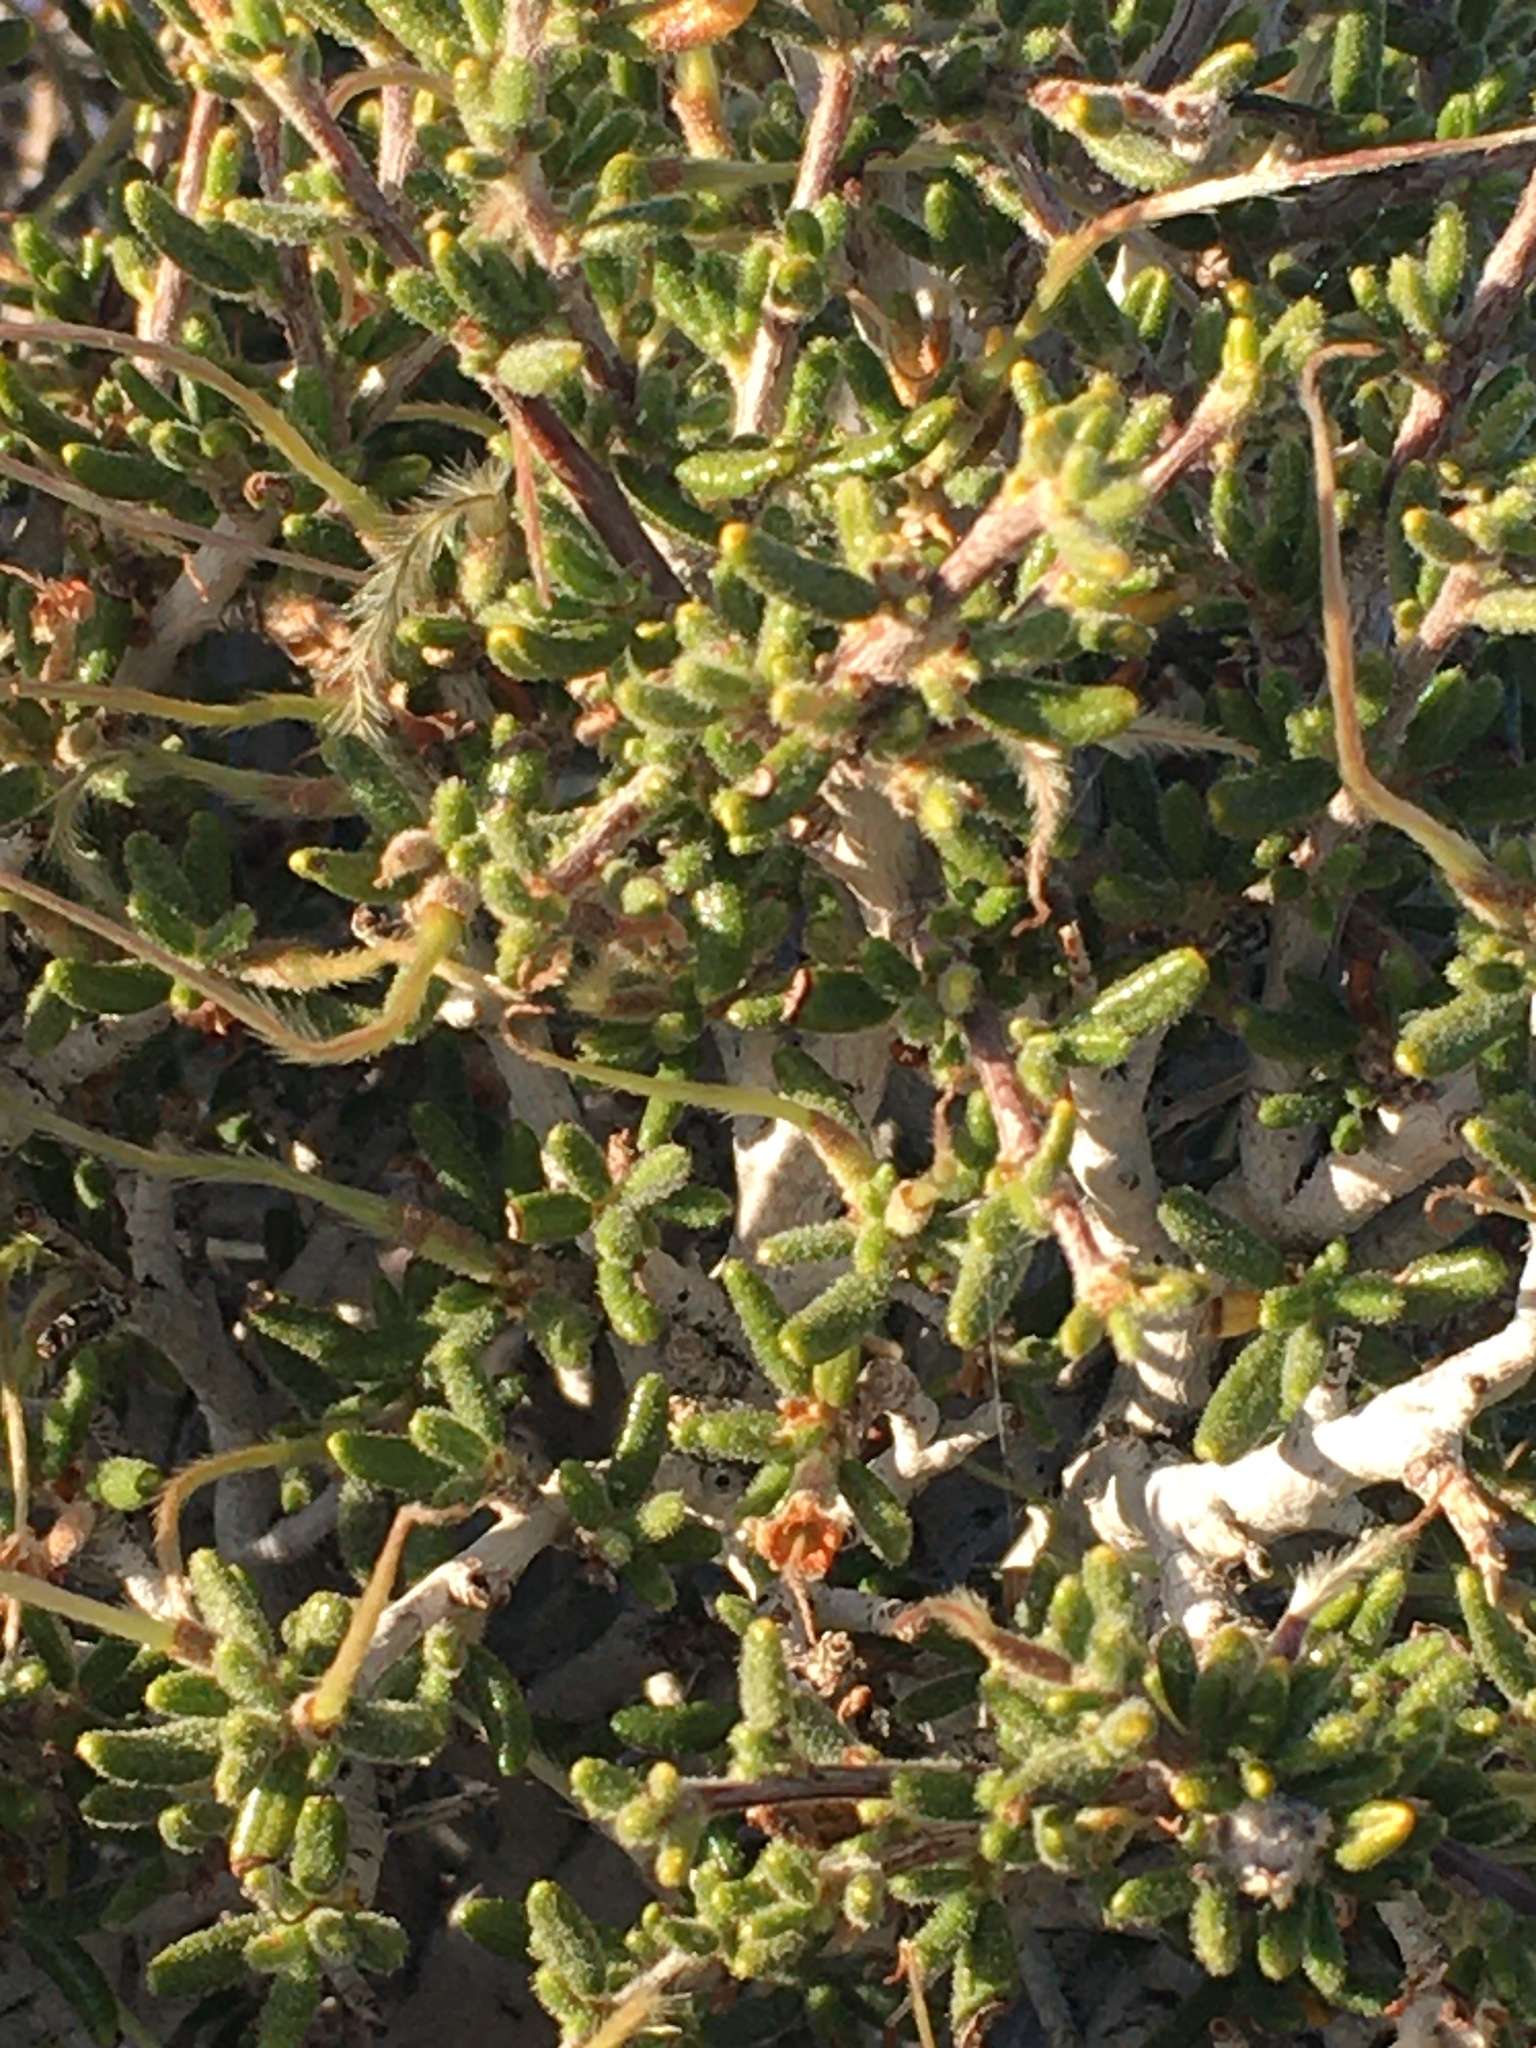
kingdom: Plantae
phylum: Tracheophyta
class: Magnoliopsida
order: Rosales
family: Rosaceae
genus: Cercocarpus
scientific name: Cercocarpus intricatus
